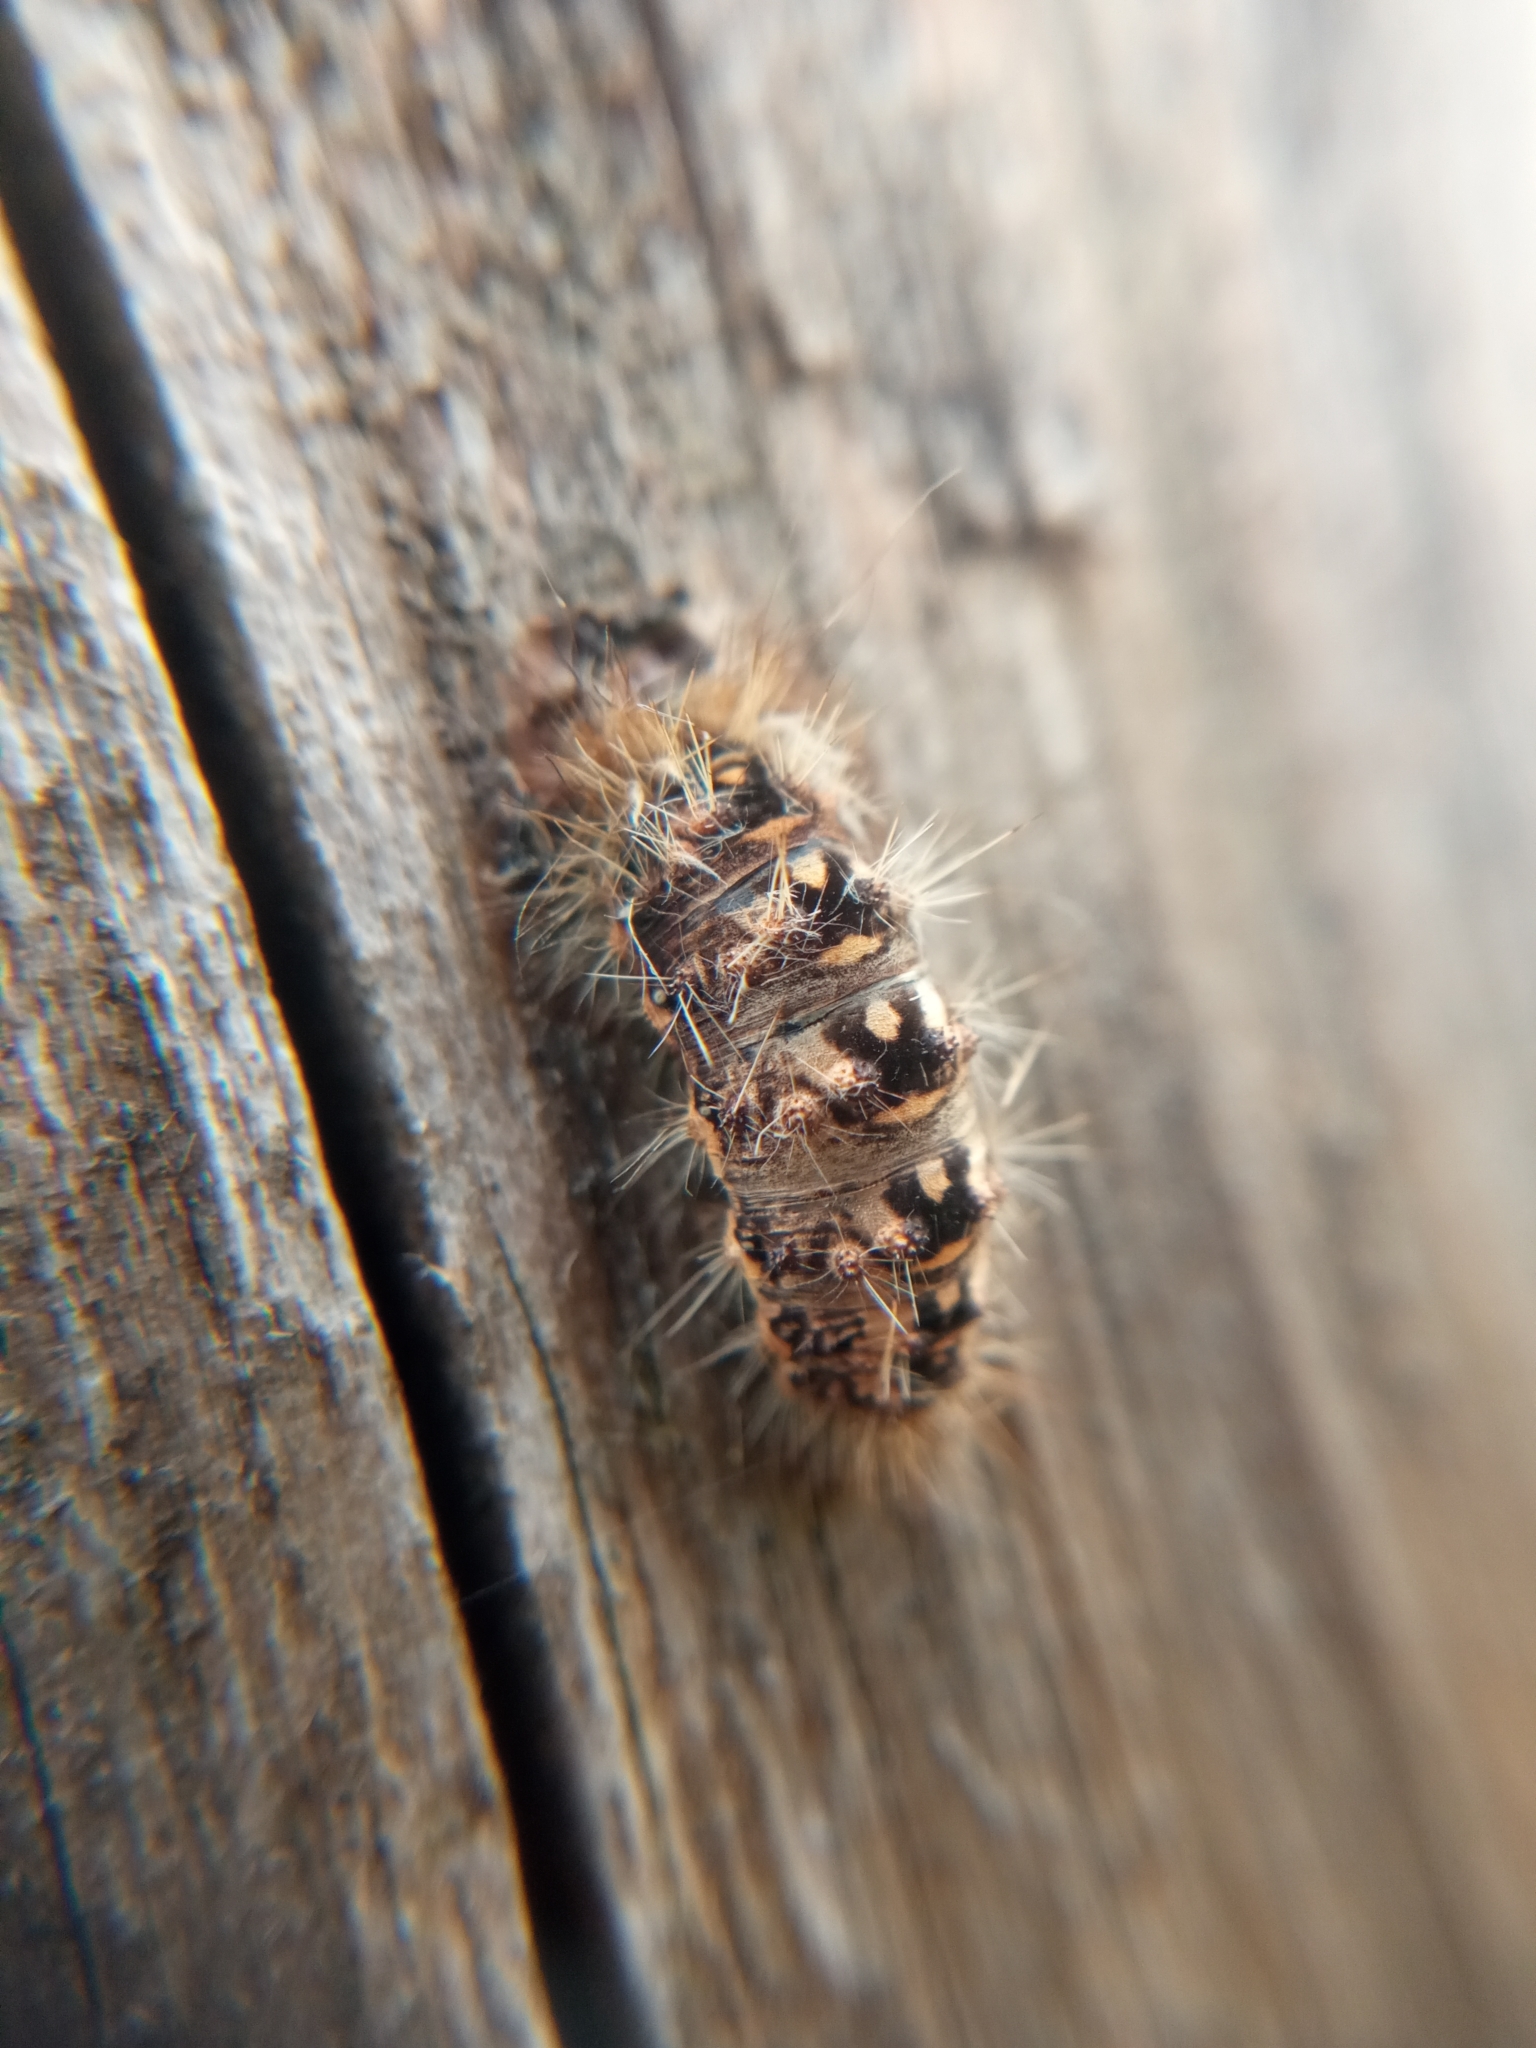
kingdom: Animalia
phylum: Arthropoda
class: Insecta
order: Lepidoptera
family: Noctuidae
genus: Acronicta
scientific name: Acronicta rumicis
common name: Knot grass
